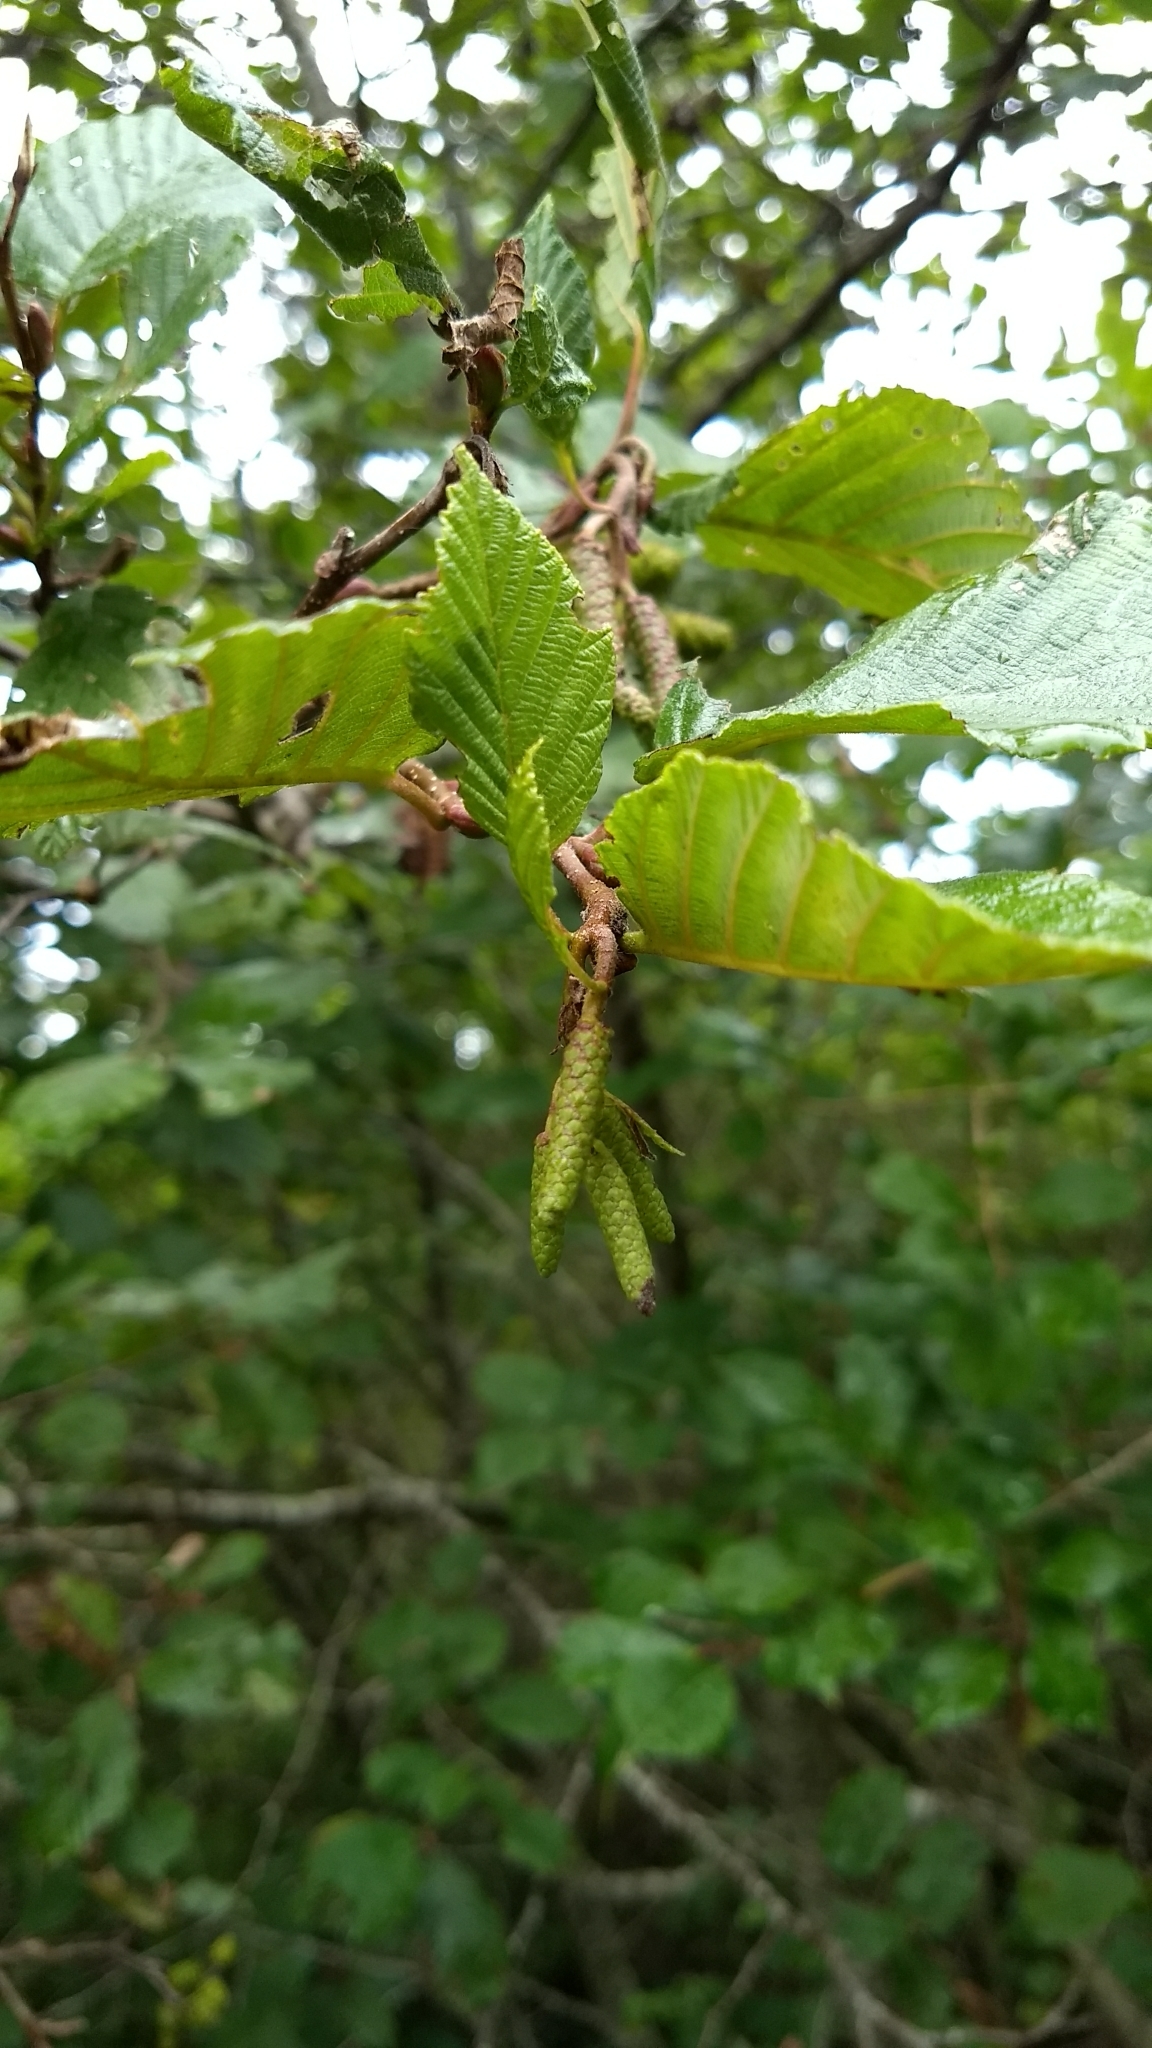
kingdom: Plantae
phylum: Tracheophyta
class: Magnoliopsida
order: Fagales
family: Betulaceae
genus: Alnus
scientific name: Alnus serrulata
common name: Hazel alder
